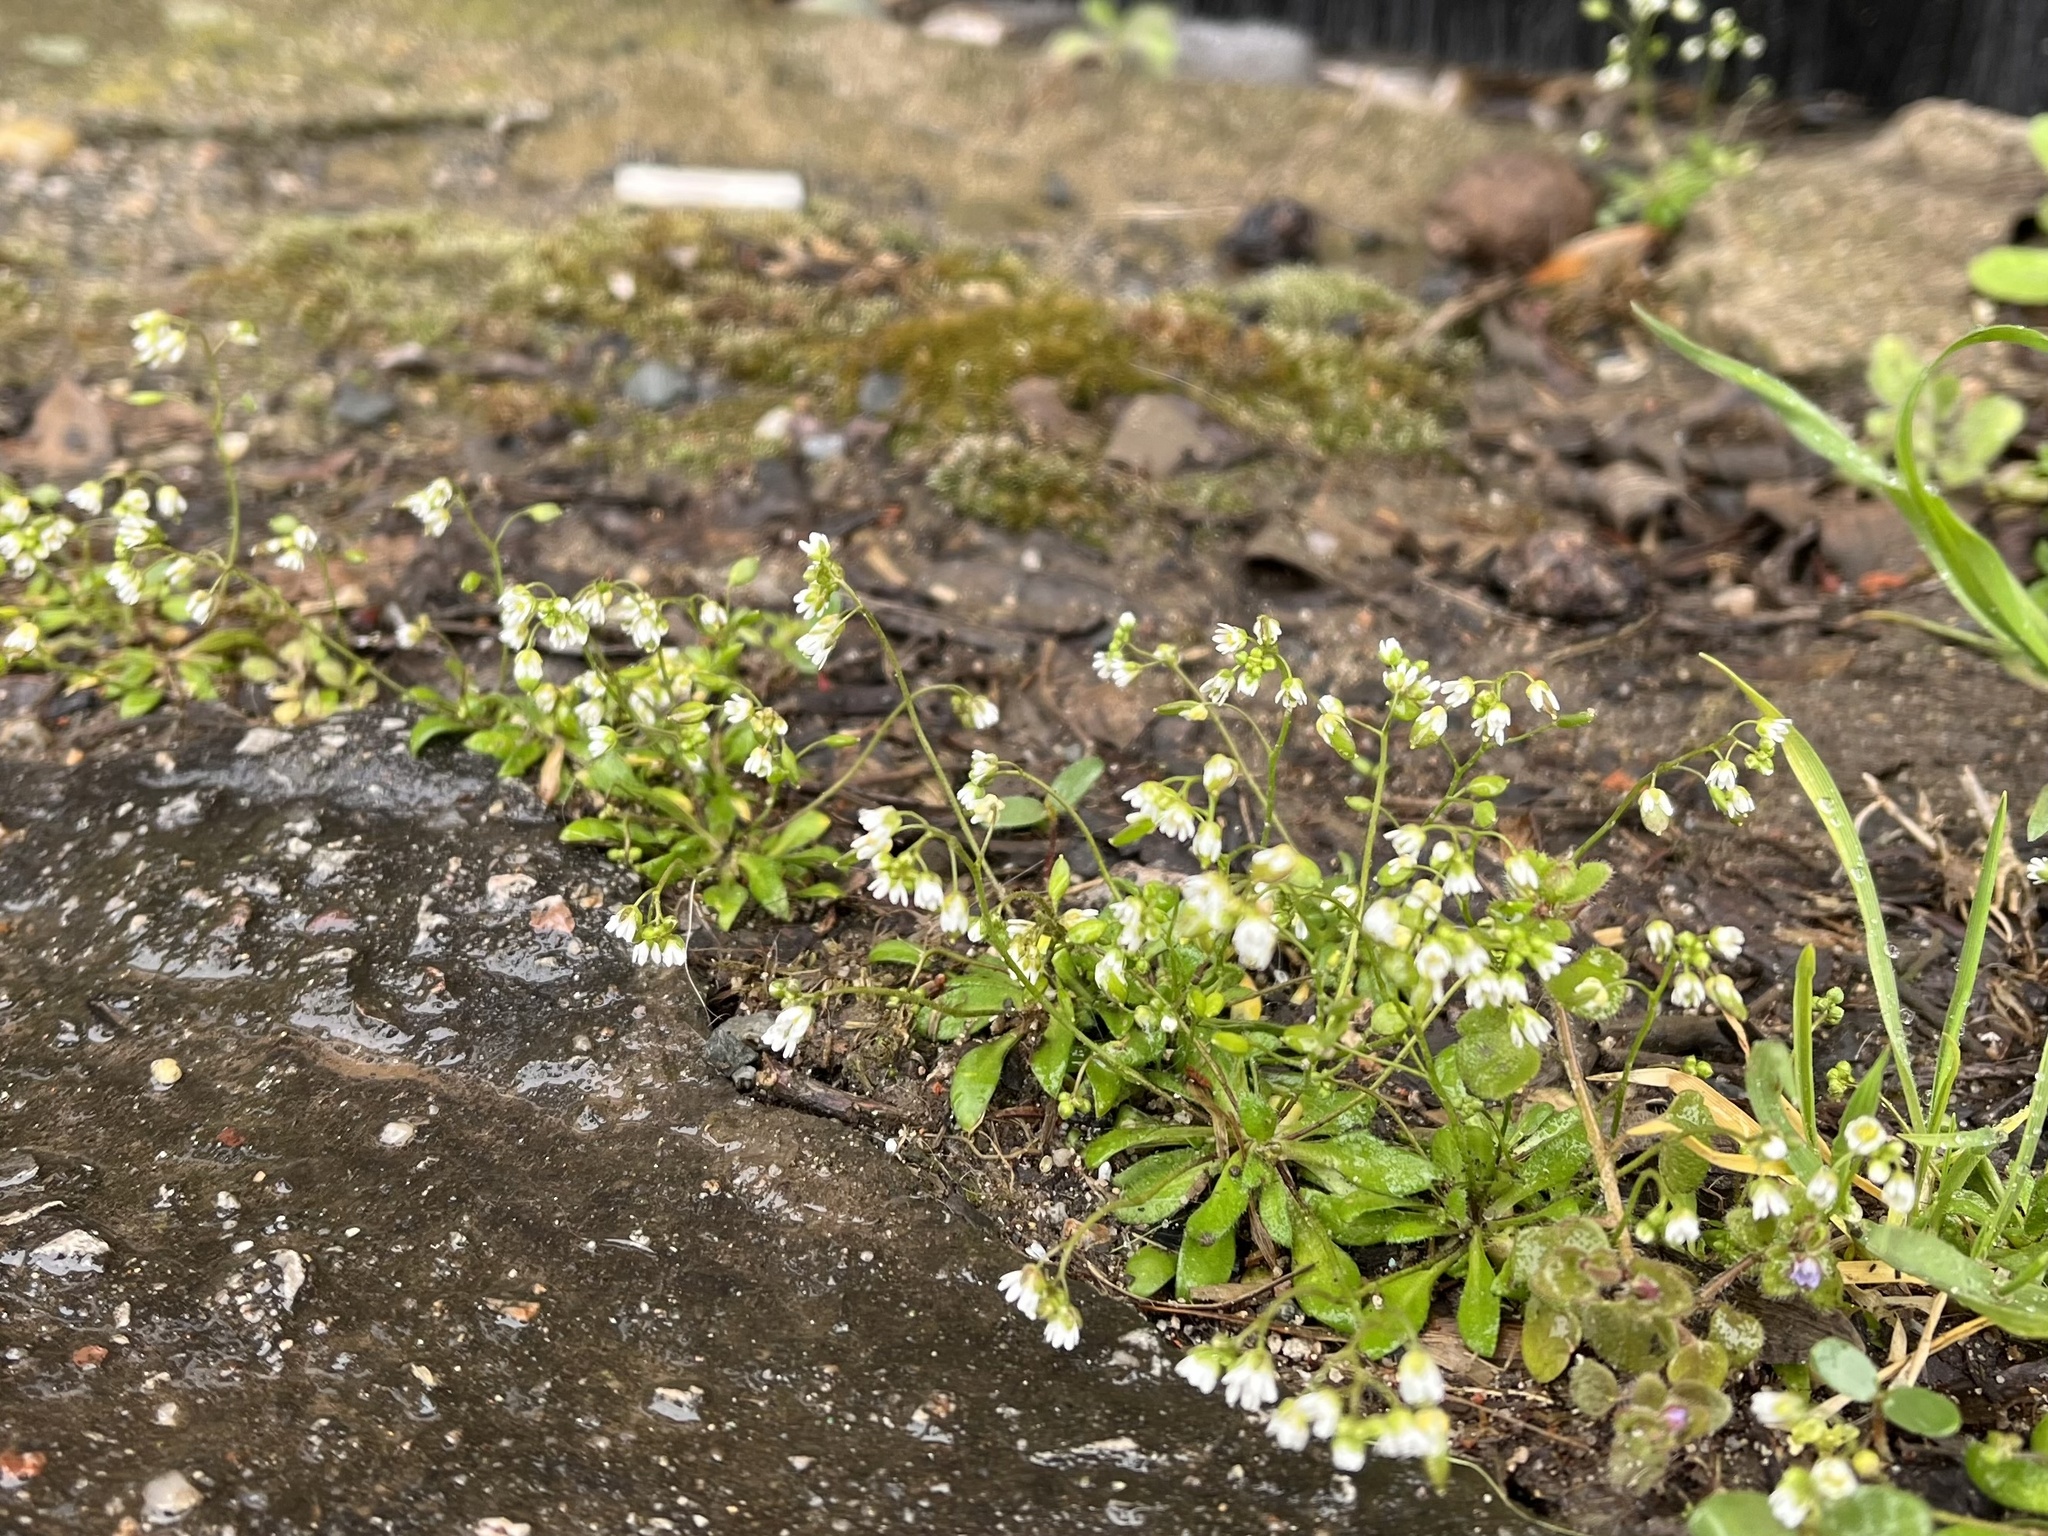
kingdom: Plantae
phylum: Tracheophyta
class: Magnoliopsida
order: Brassicales
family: Brassicaceae
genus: Draba
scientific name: Draba verna
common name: Spring draba
